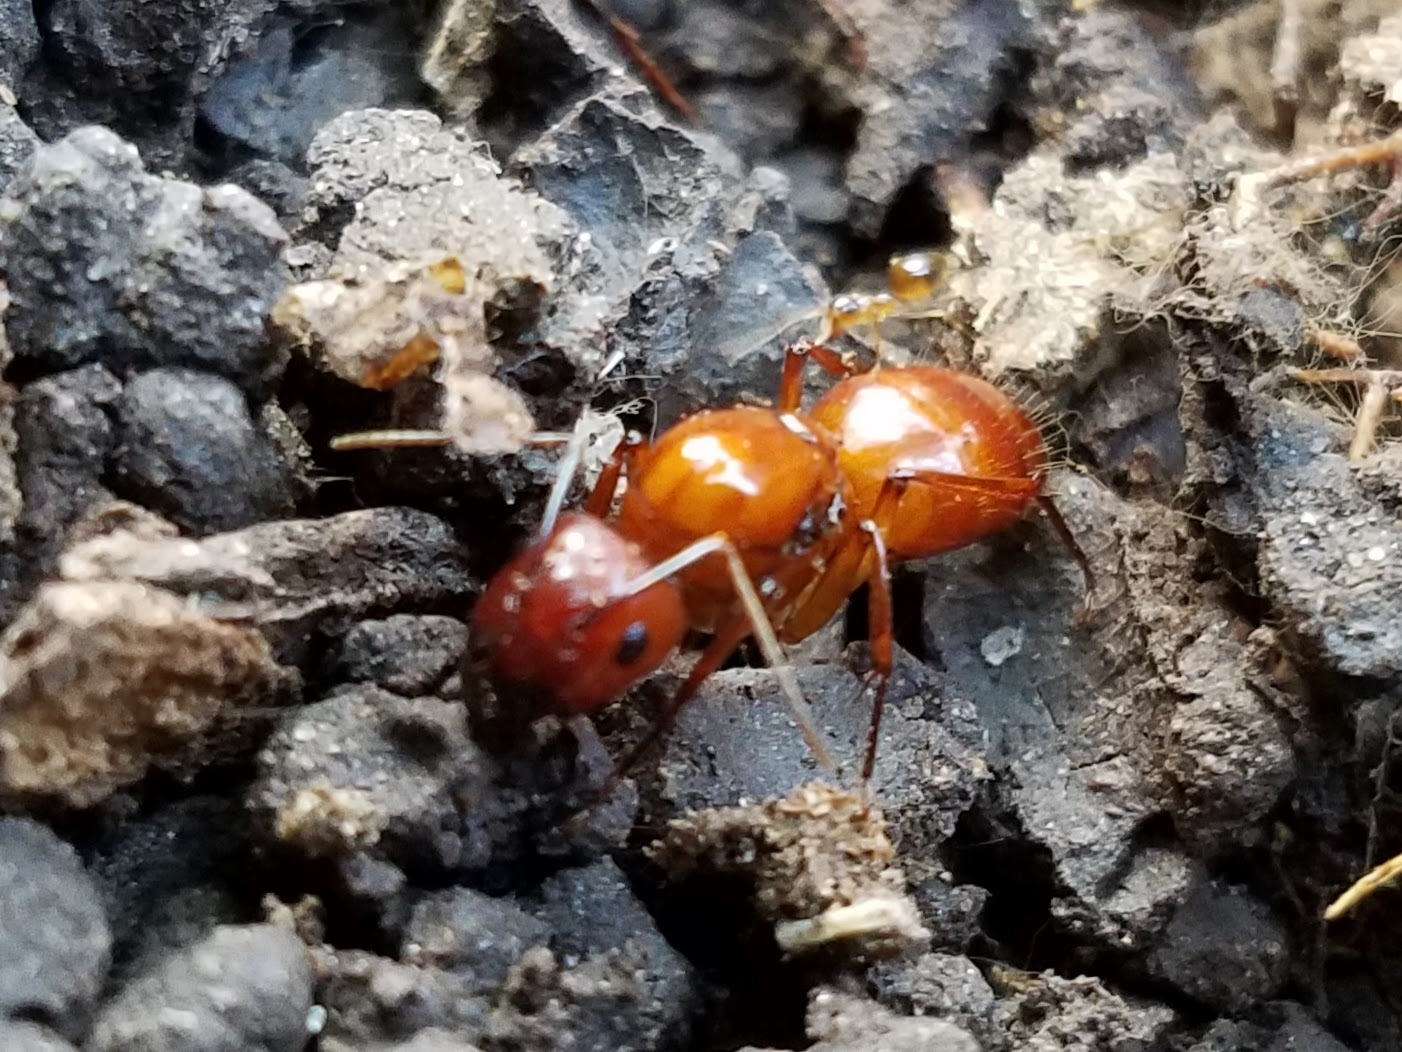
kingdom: Animalia
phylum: Arthropoda
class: Insecta
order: Hymenoptera
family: Formicidae
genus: Camponotus
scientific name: Camponotus castaneus
